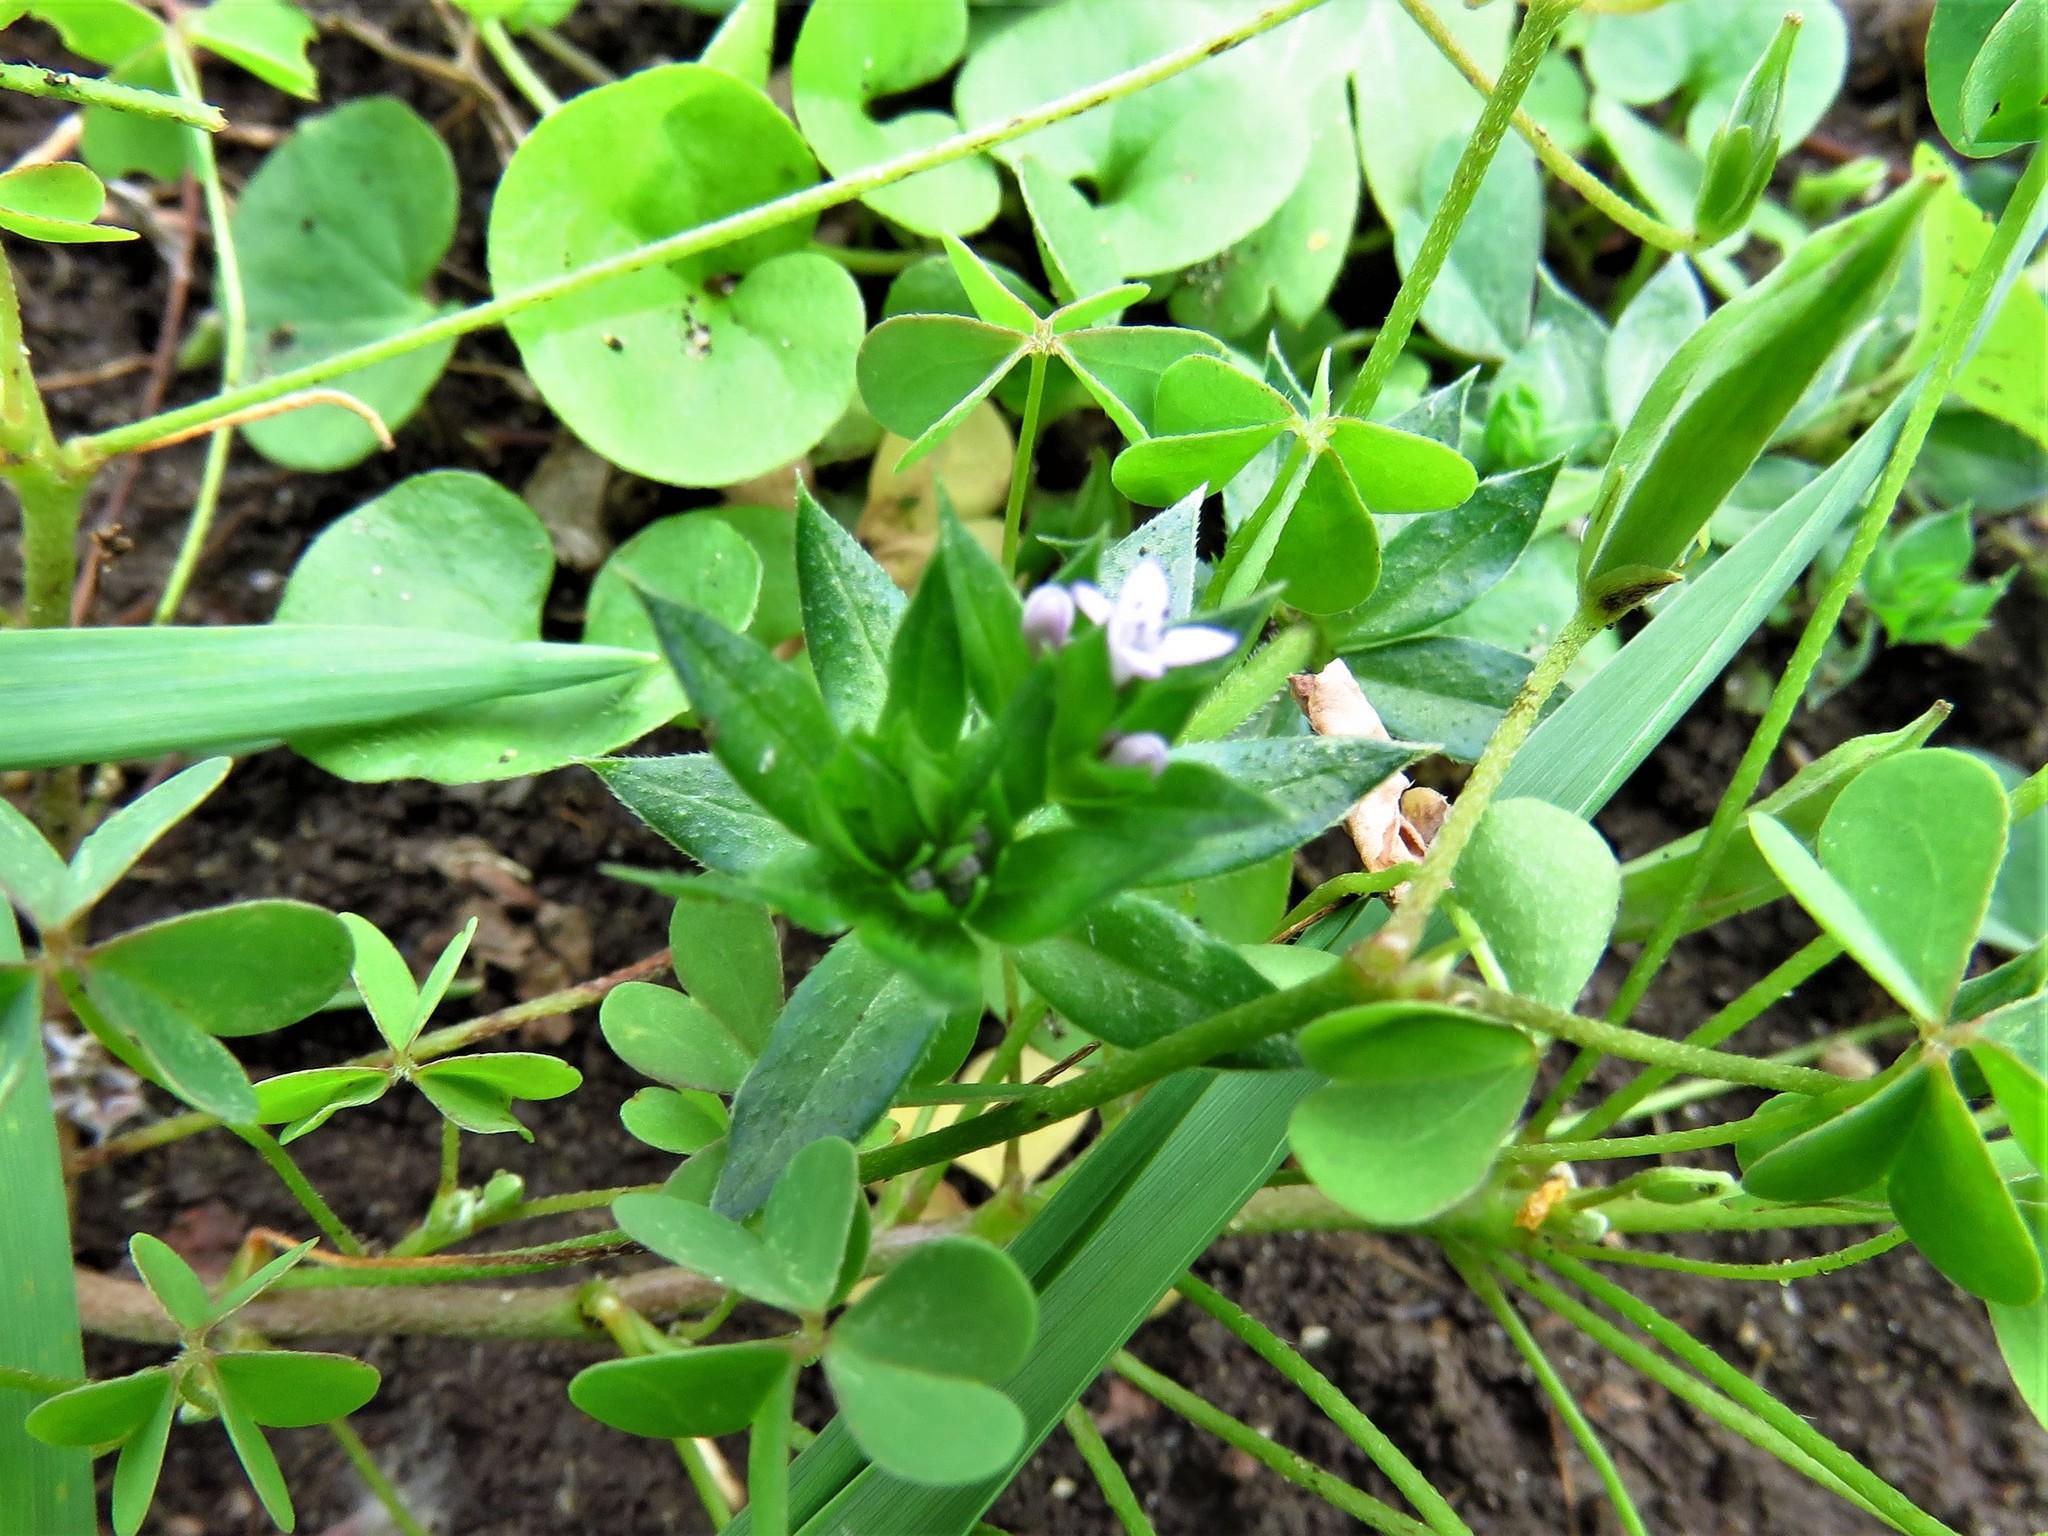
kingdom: Plantae
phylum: Tracheophyta
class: Magnoliopsida
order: Gentianales
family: Rubiaceae
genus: Sherardia
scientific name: Sherardia arvensis
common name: Field madder
